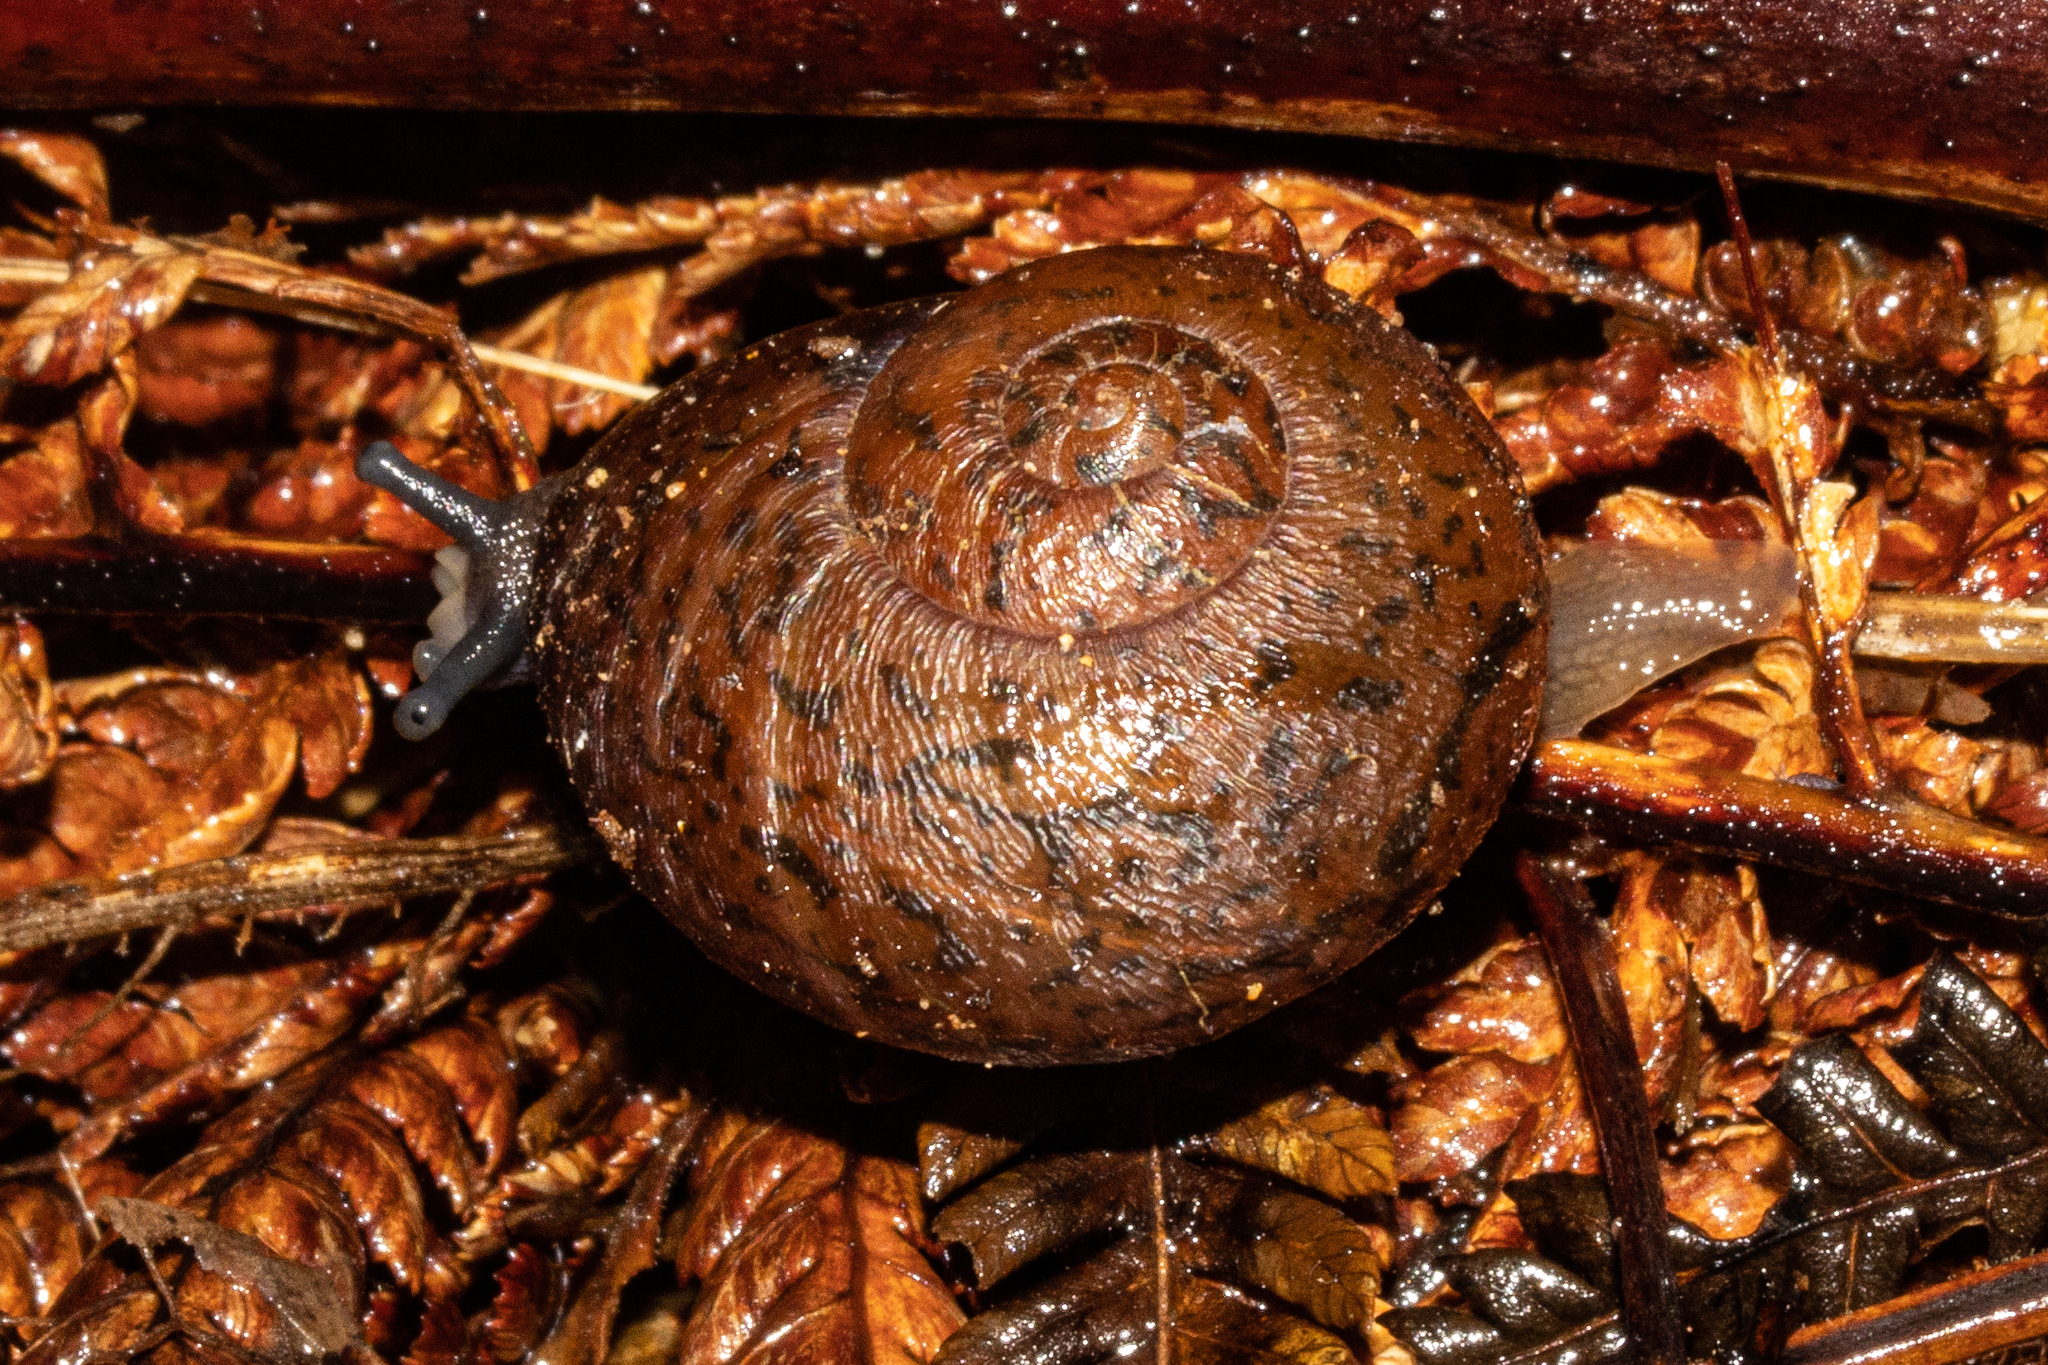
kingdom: Animalia
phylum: Mollusca
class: Gastropoda
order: Stylommatophora
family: Rhytididae
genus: Rhytida
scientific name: Rhytida greenwoodi
